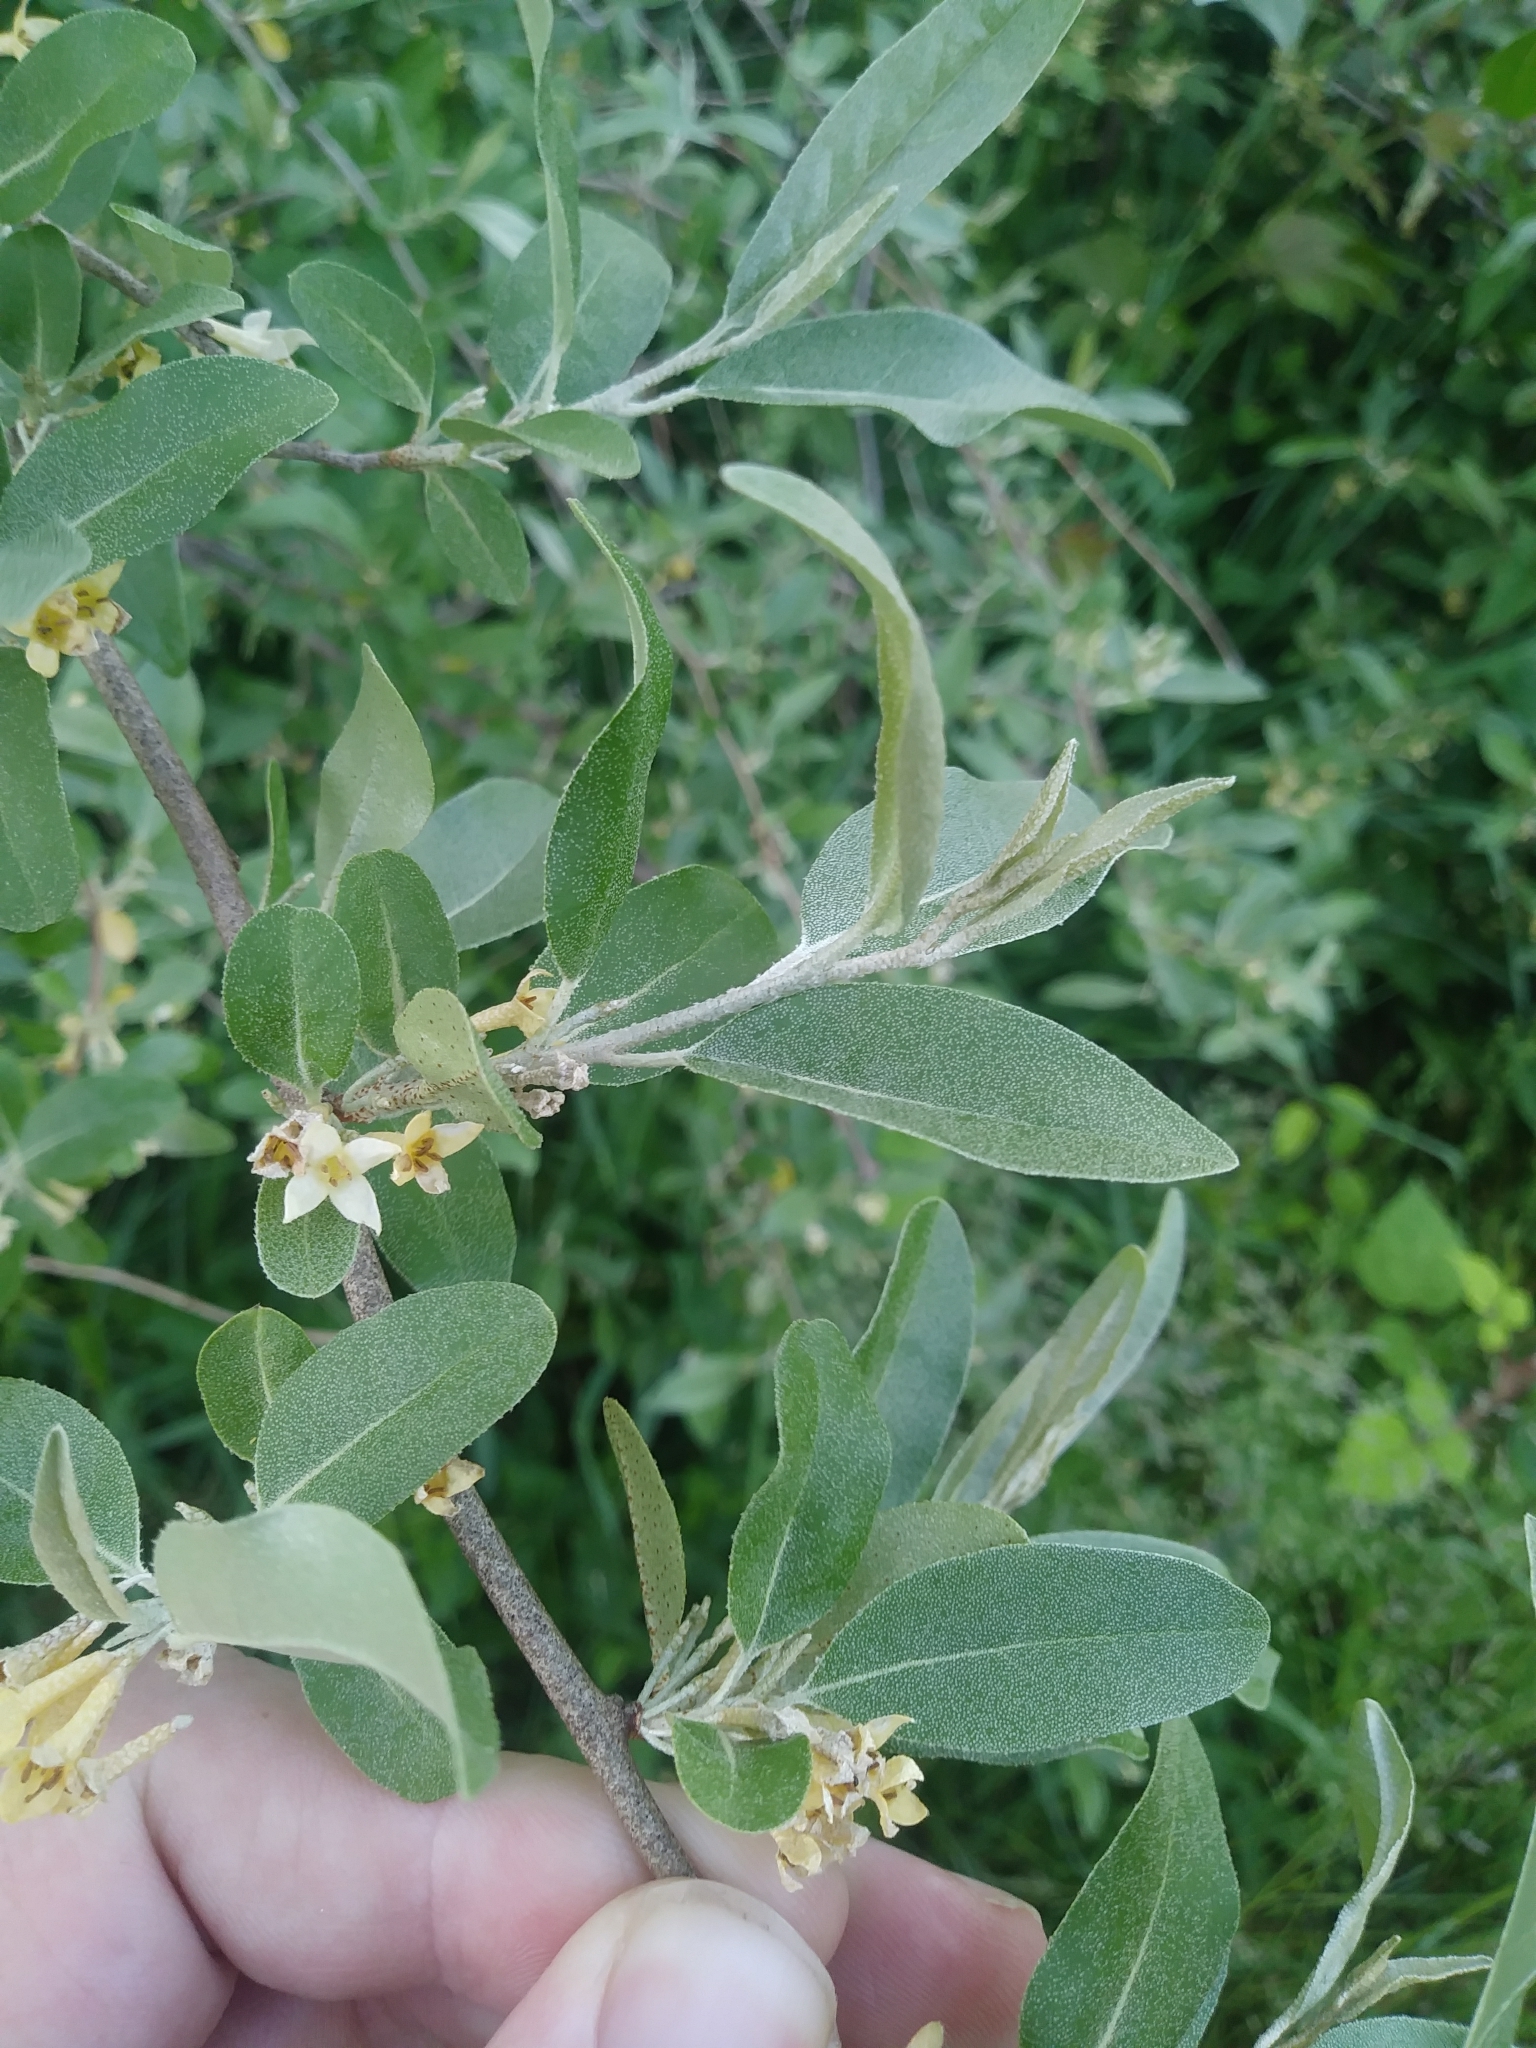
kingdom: Plantae
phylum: Tracheophyta
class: Magnoliopsida
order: Rosales
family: Elaeagnaceae
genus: Elaeagnus
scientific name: Elaeagnus umbellata
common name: Autumn olive
